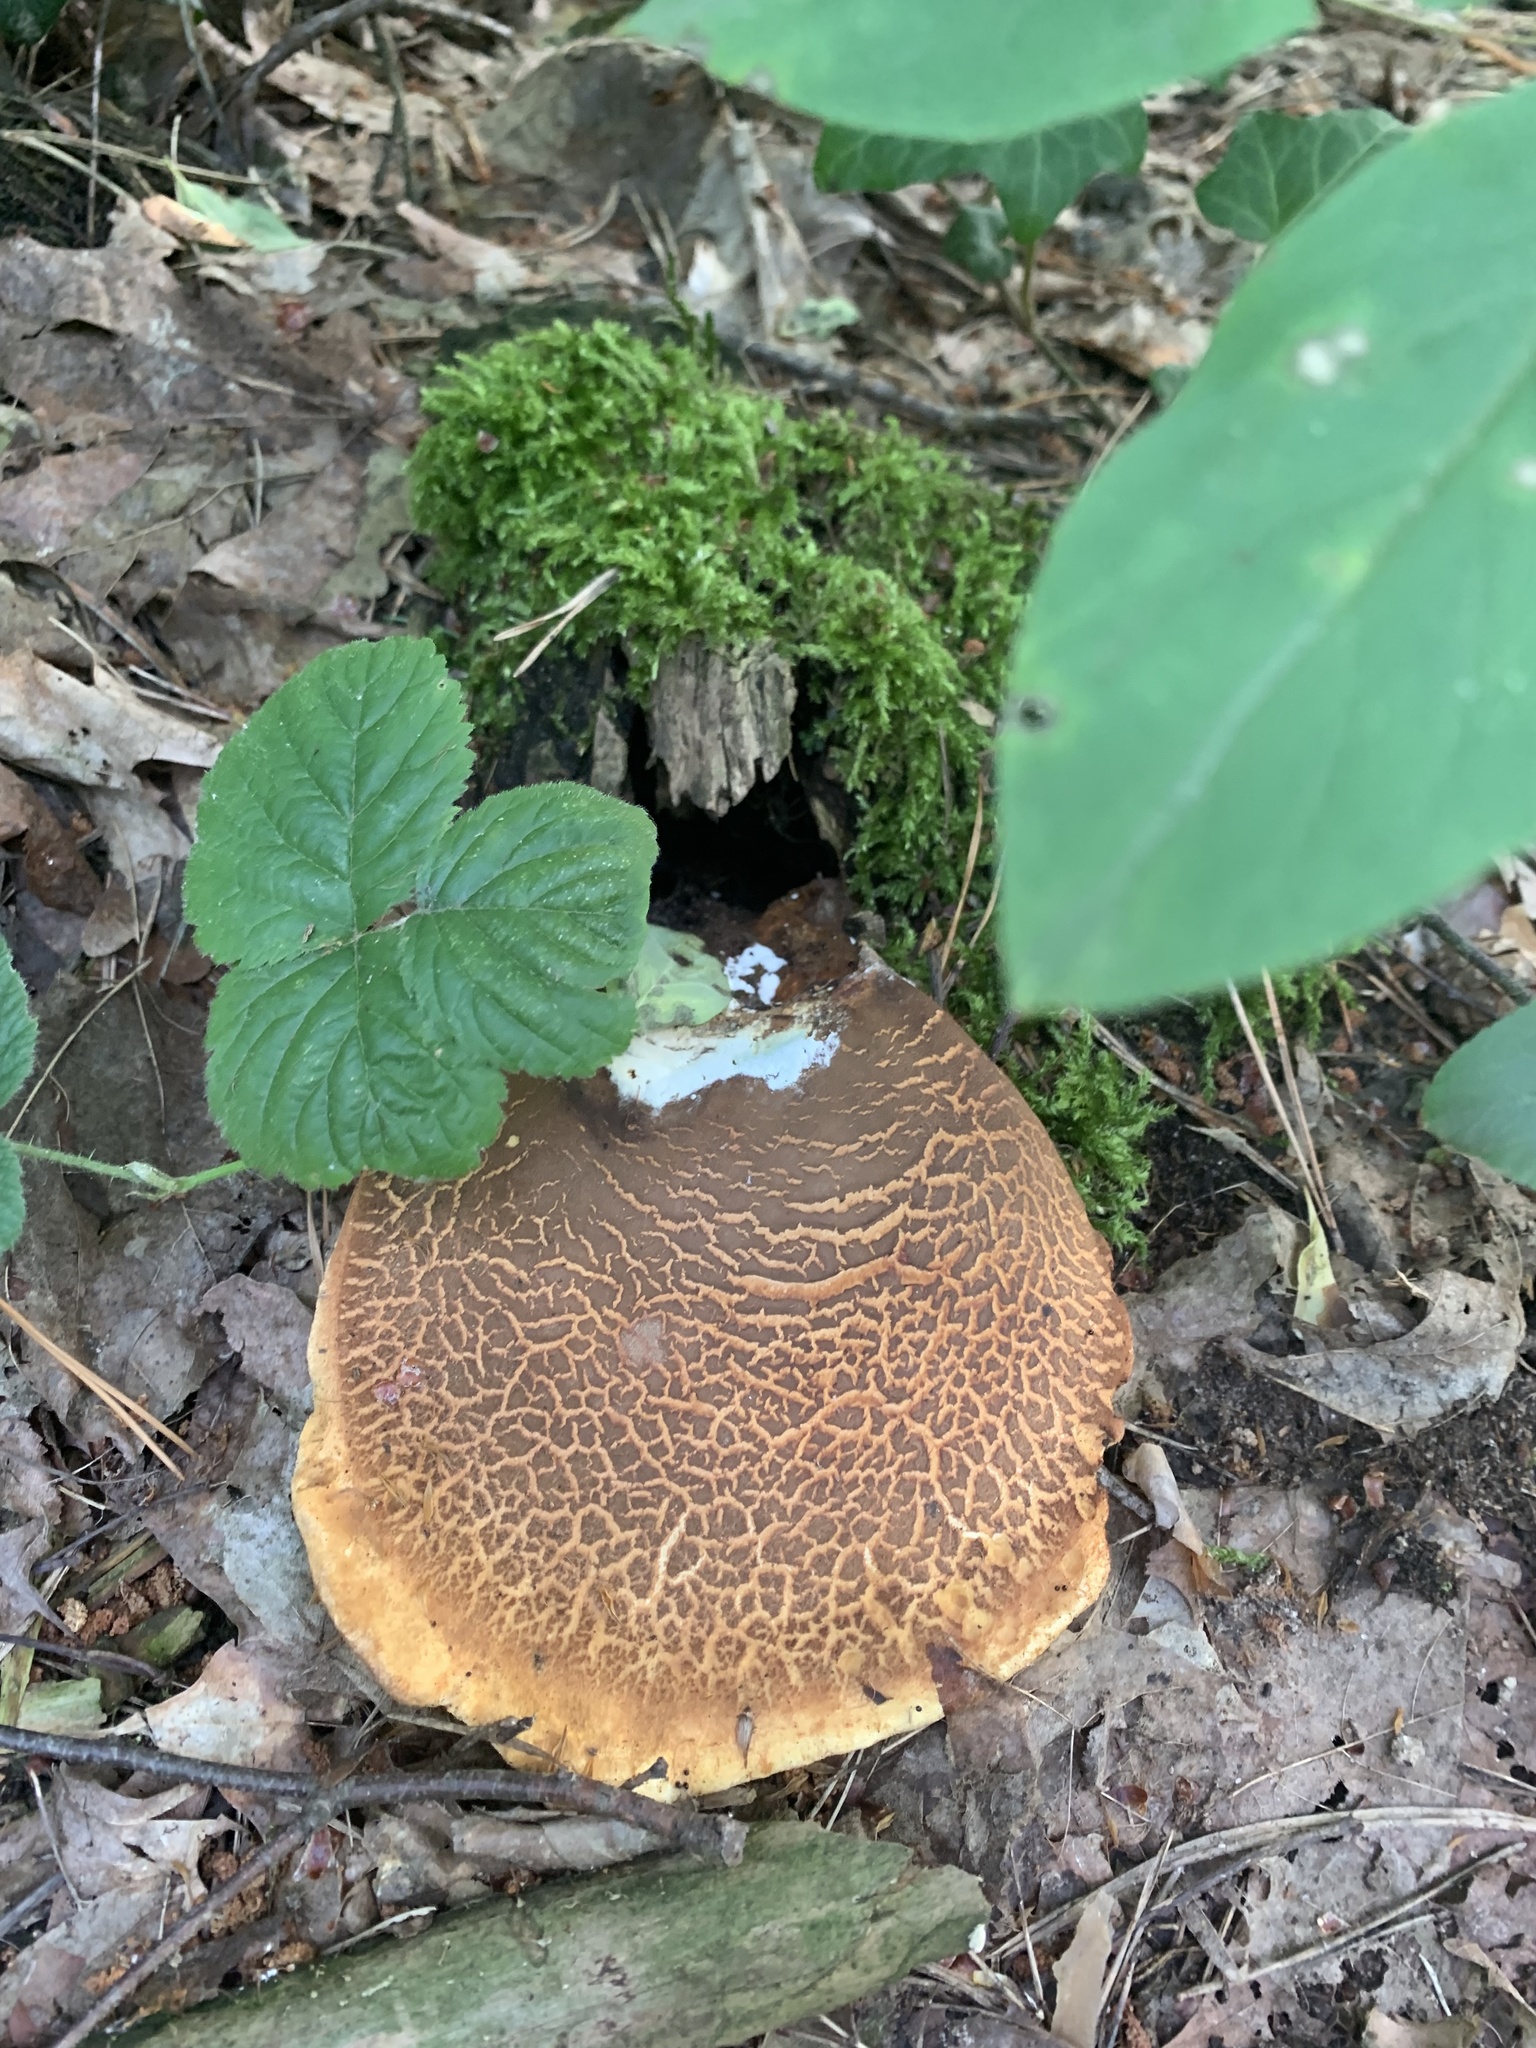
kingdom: Fungi
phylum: Basidiomycota
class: Agaricomycetes
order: Boletales
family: Tapinellaceae
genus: Tapinella
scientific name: Tapinella atrotomentosa
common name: Velvet rollrim
